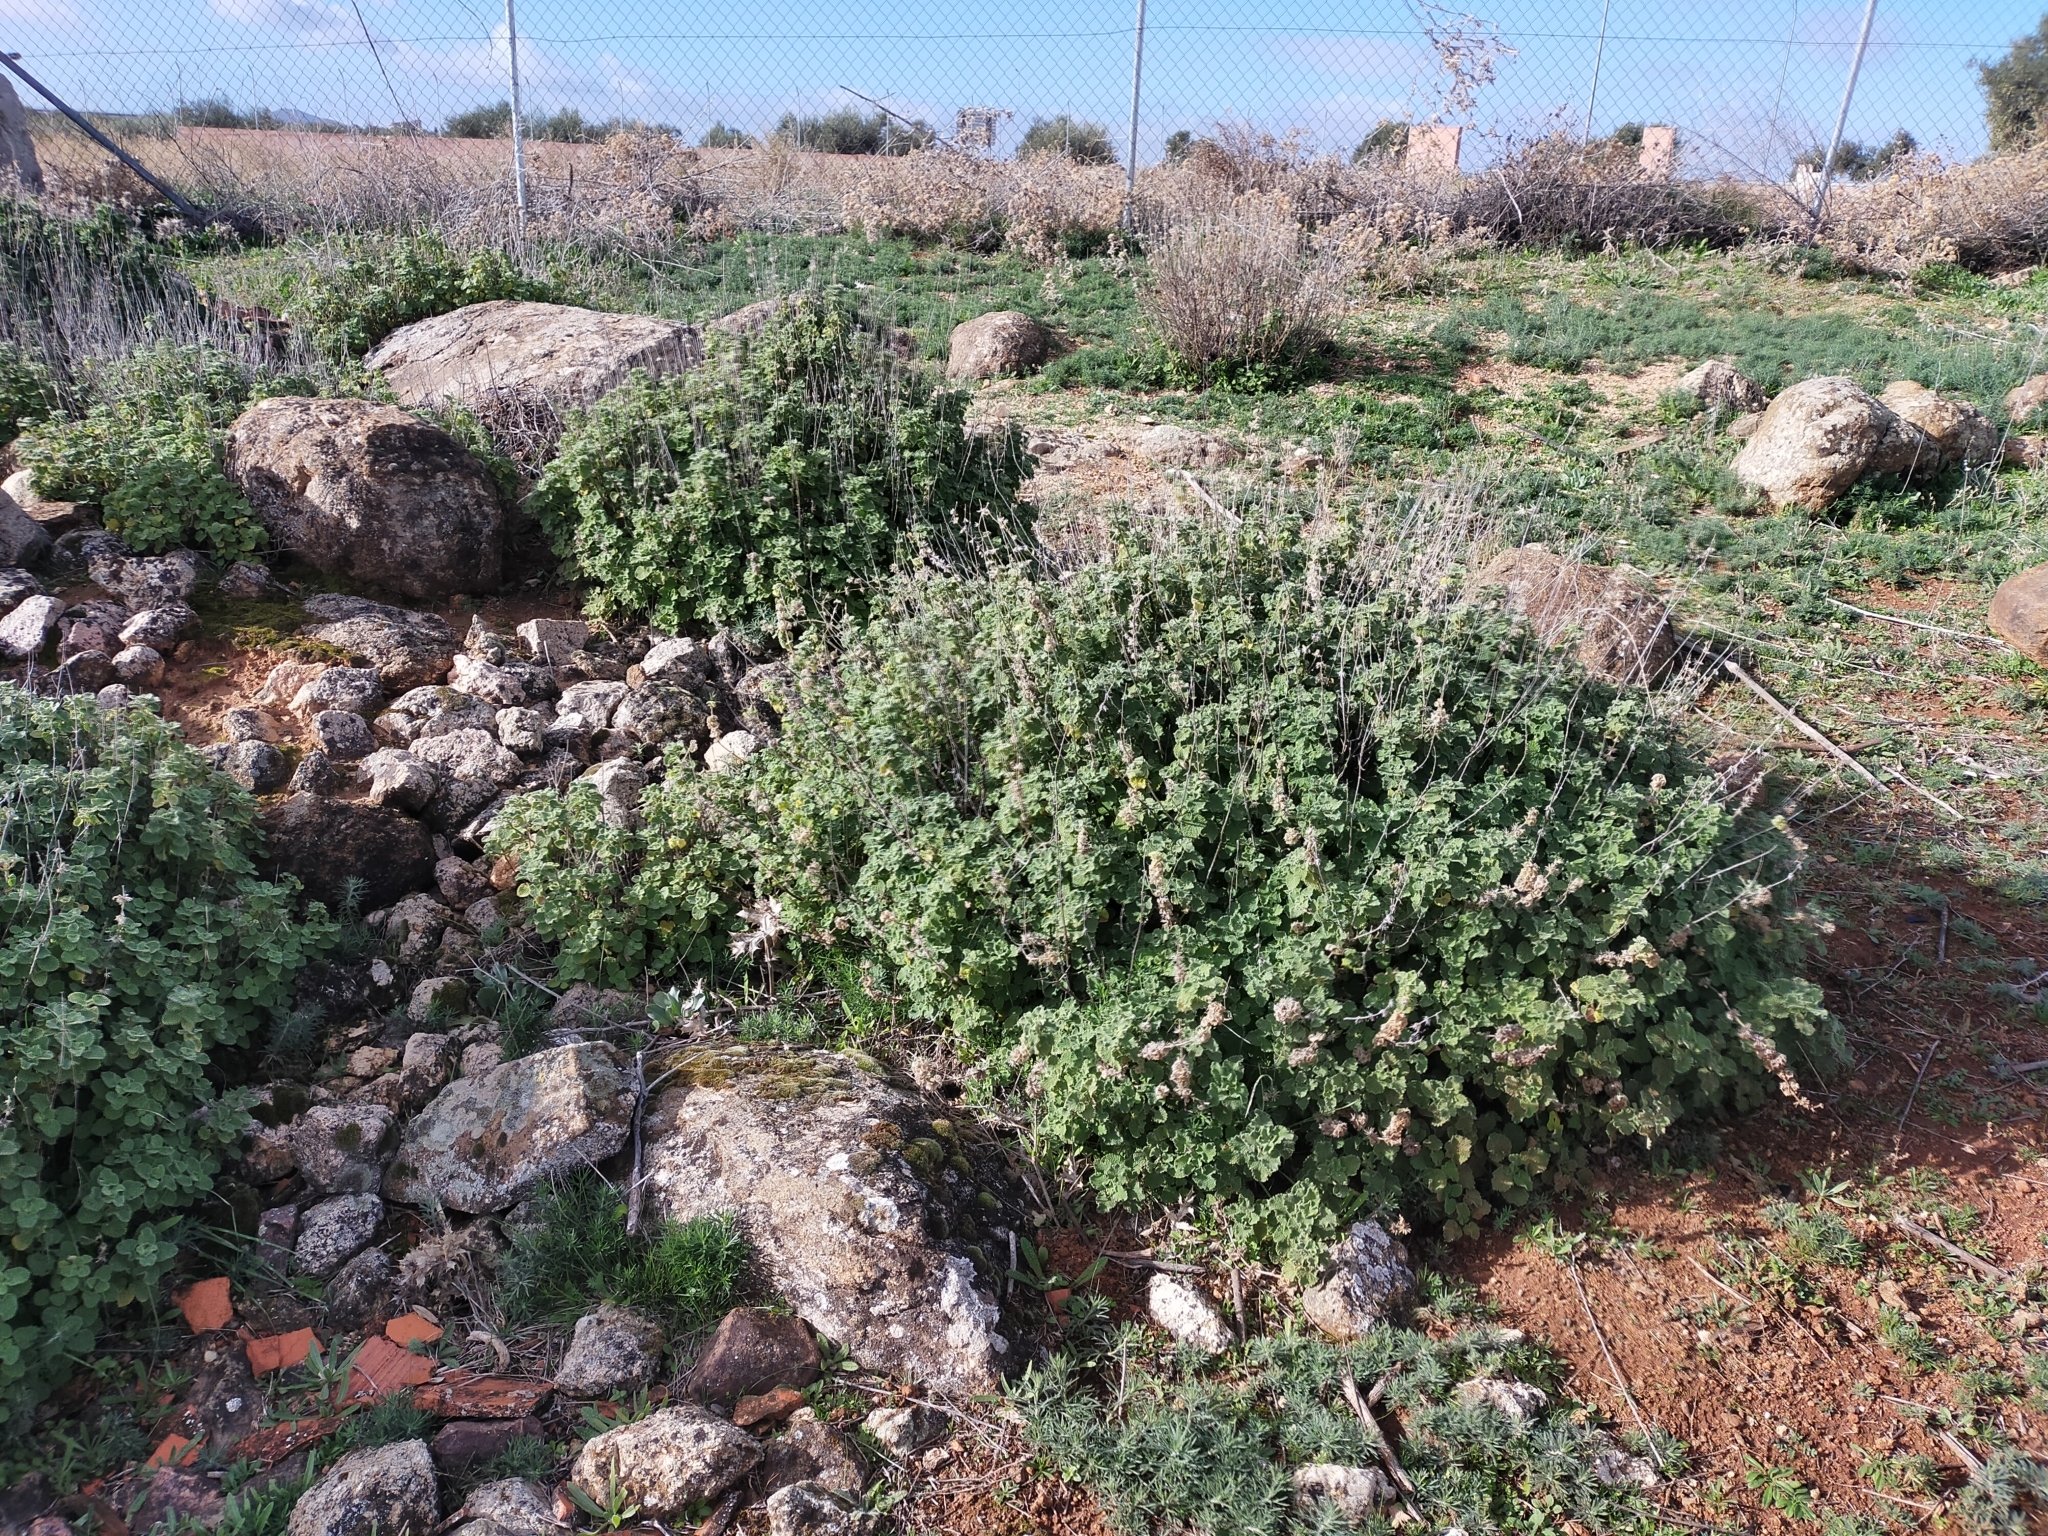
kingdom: Plantae
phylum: Tracheophyta
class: Magnoliopsida
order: Lamiales
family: Lamiaceae
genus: Pseudodictamnus
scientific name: Pseudodictamnus hirsutus
